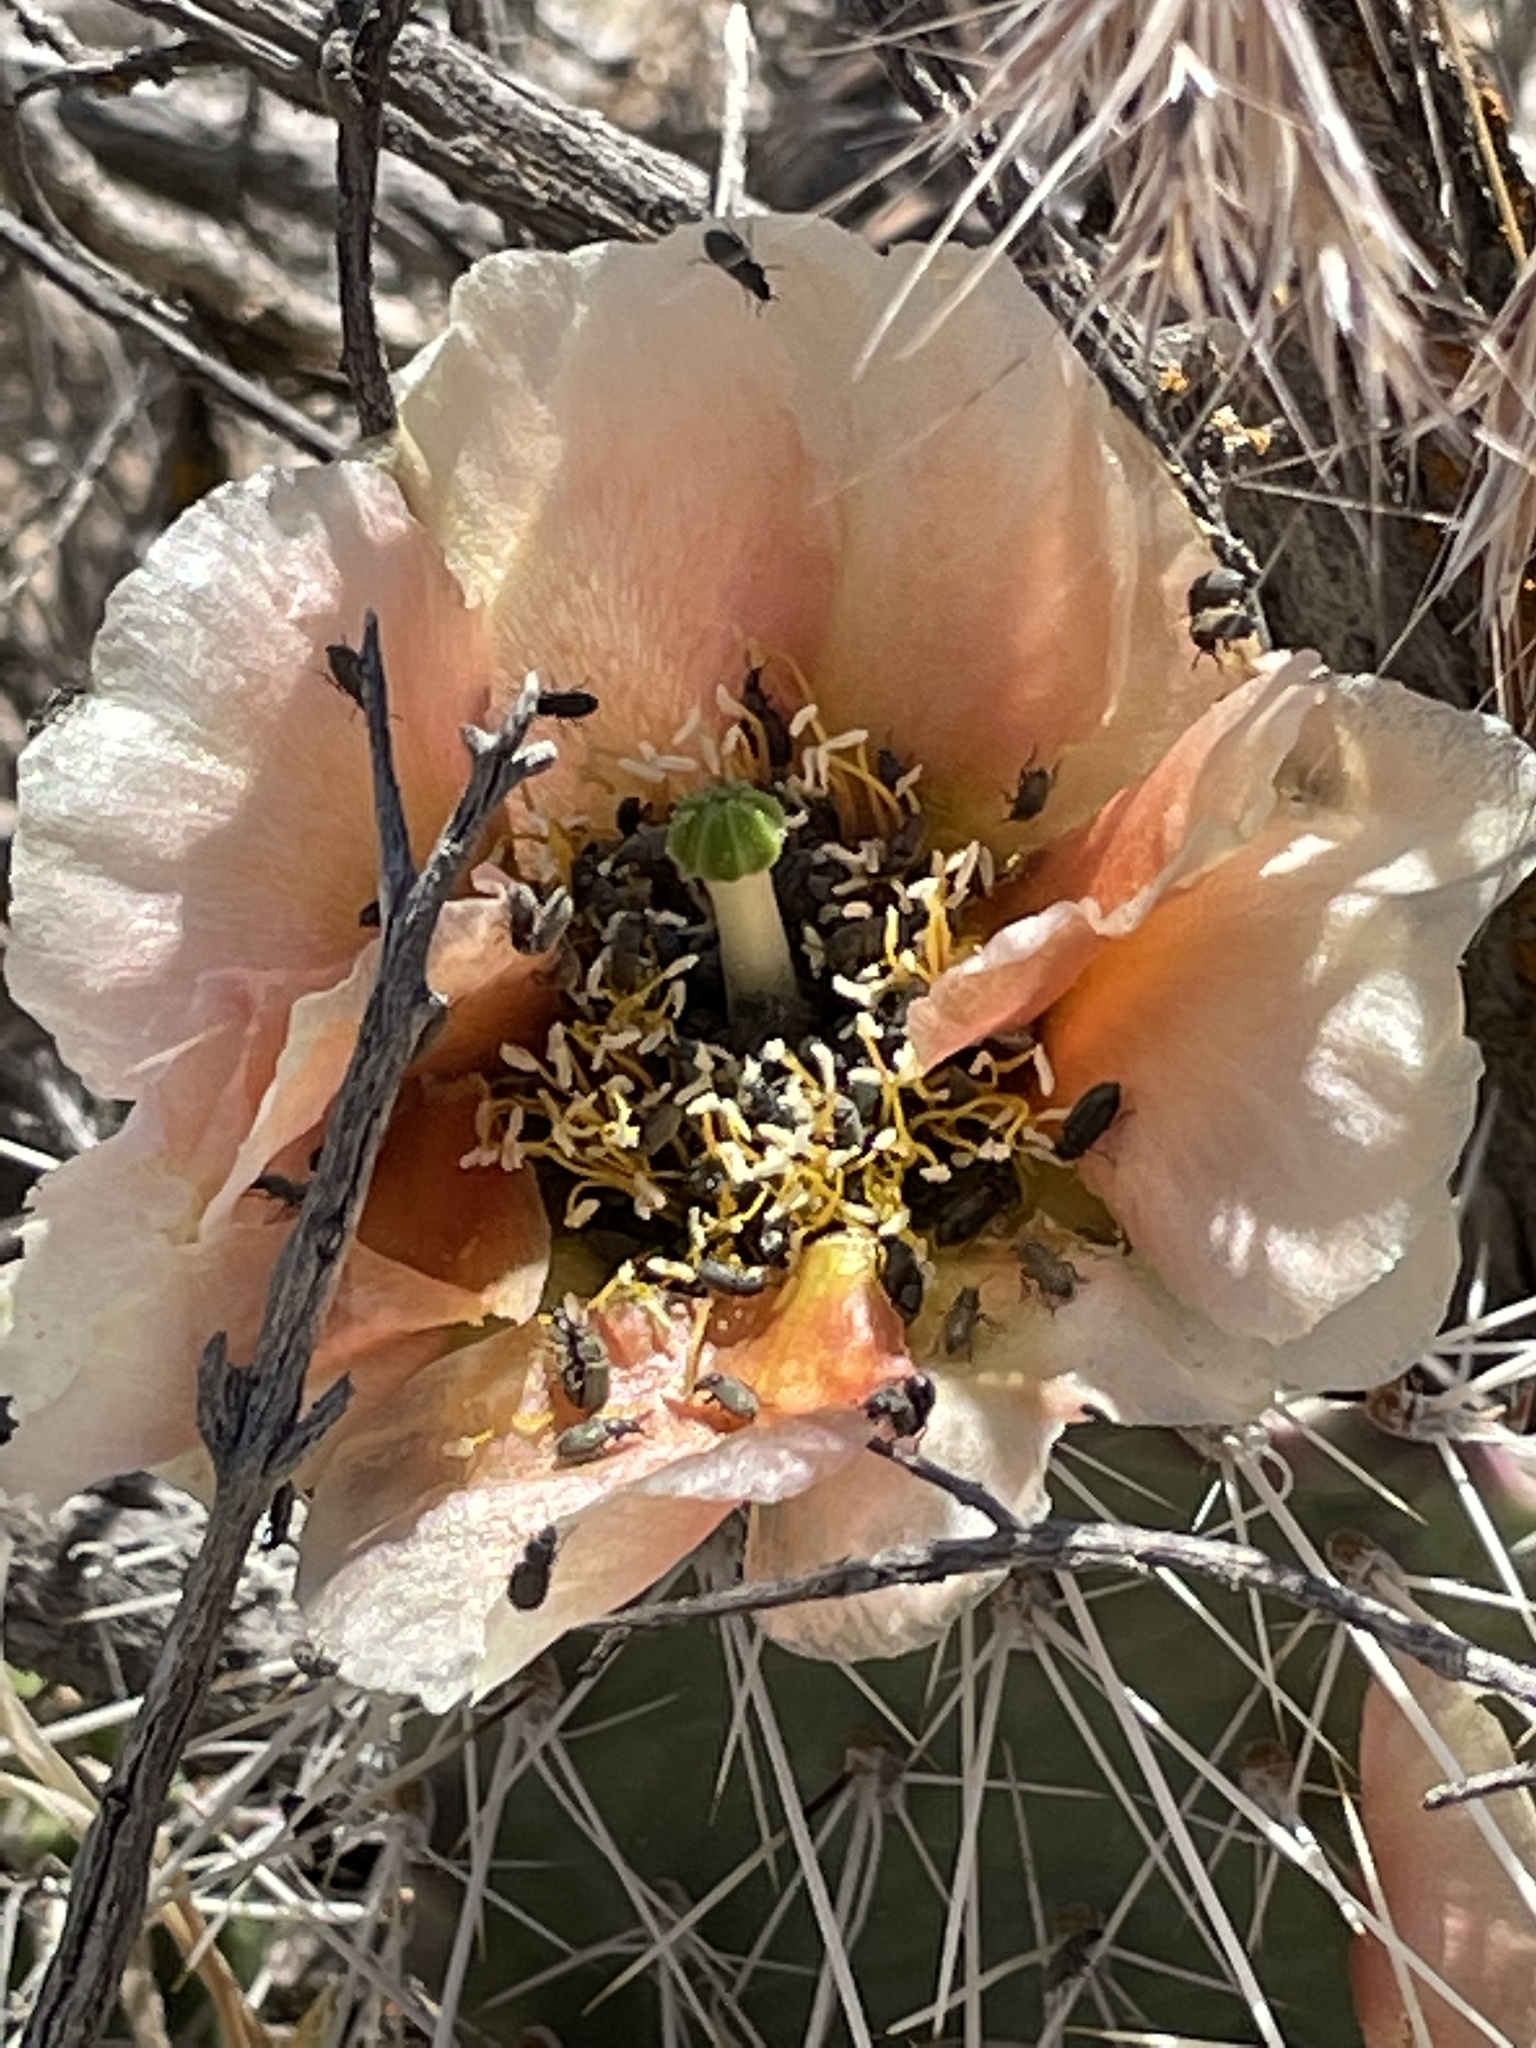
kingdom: Plantae
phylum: Tracheophyta
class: Magnoliopsida
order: Caryophyllales
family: Cactaceae
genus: Opuntia
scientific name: Opuntia polyacantha
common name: Plains prickly-pear
